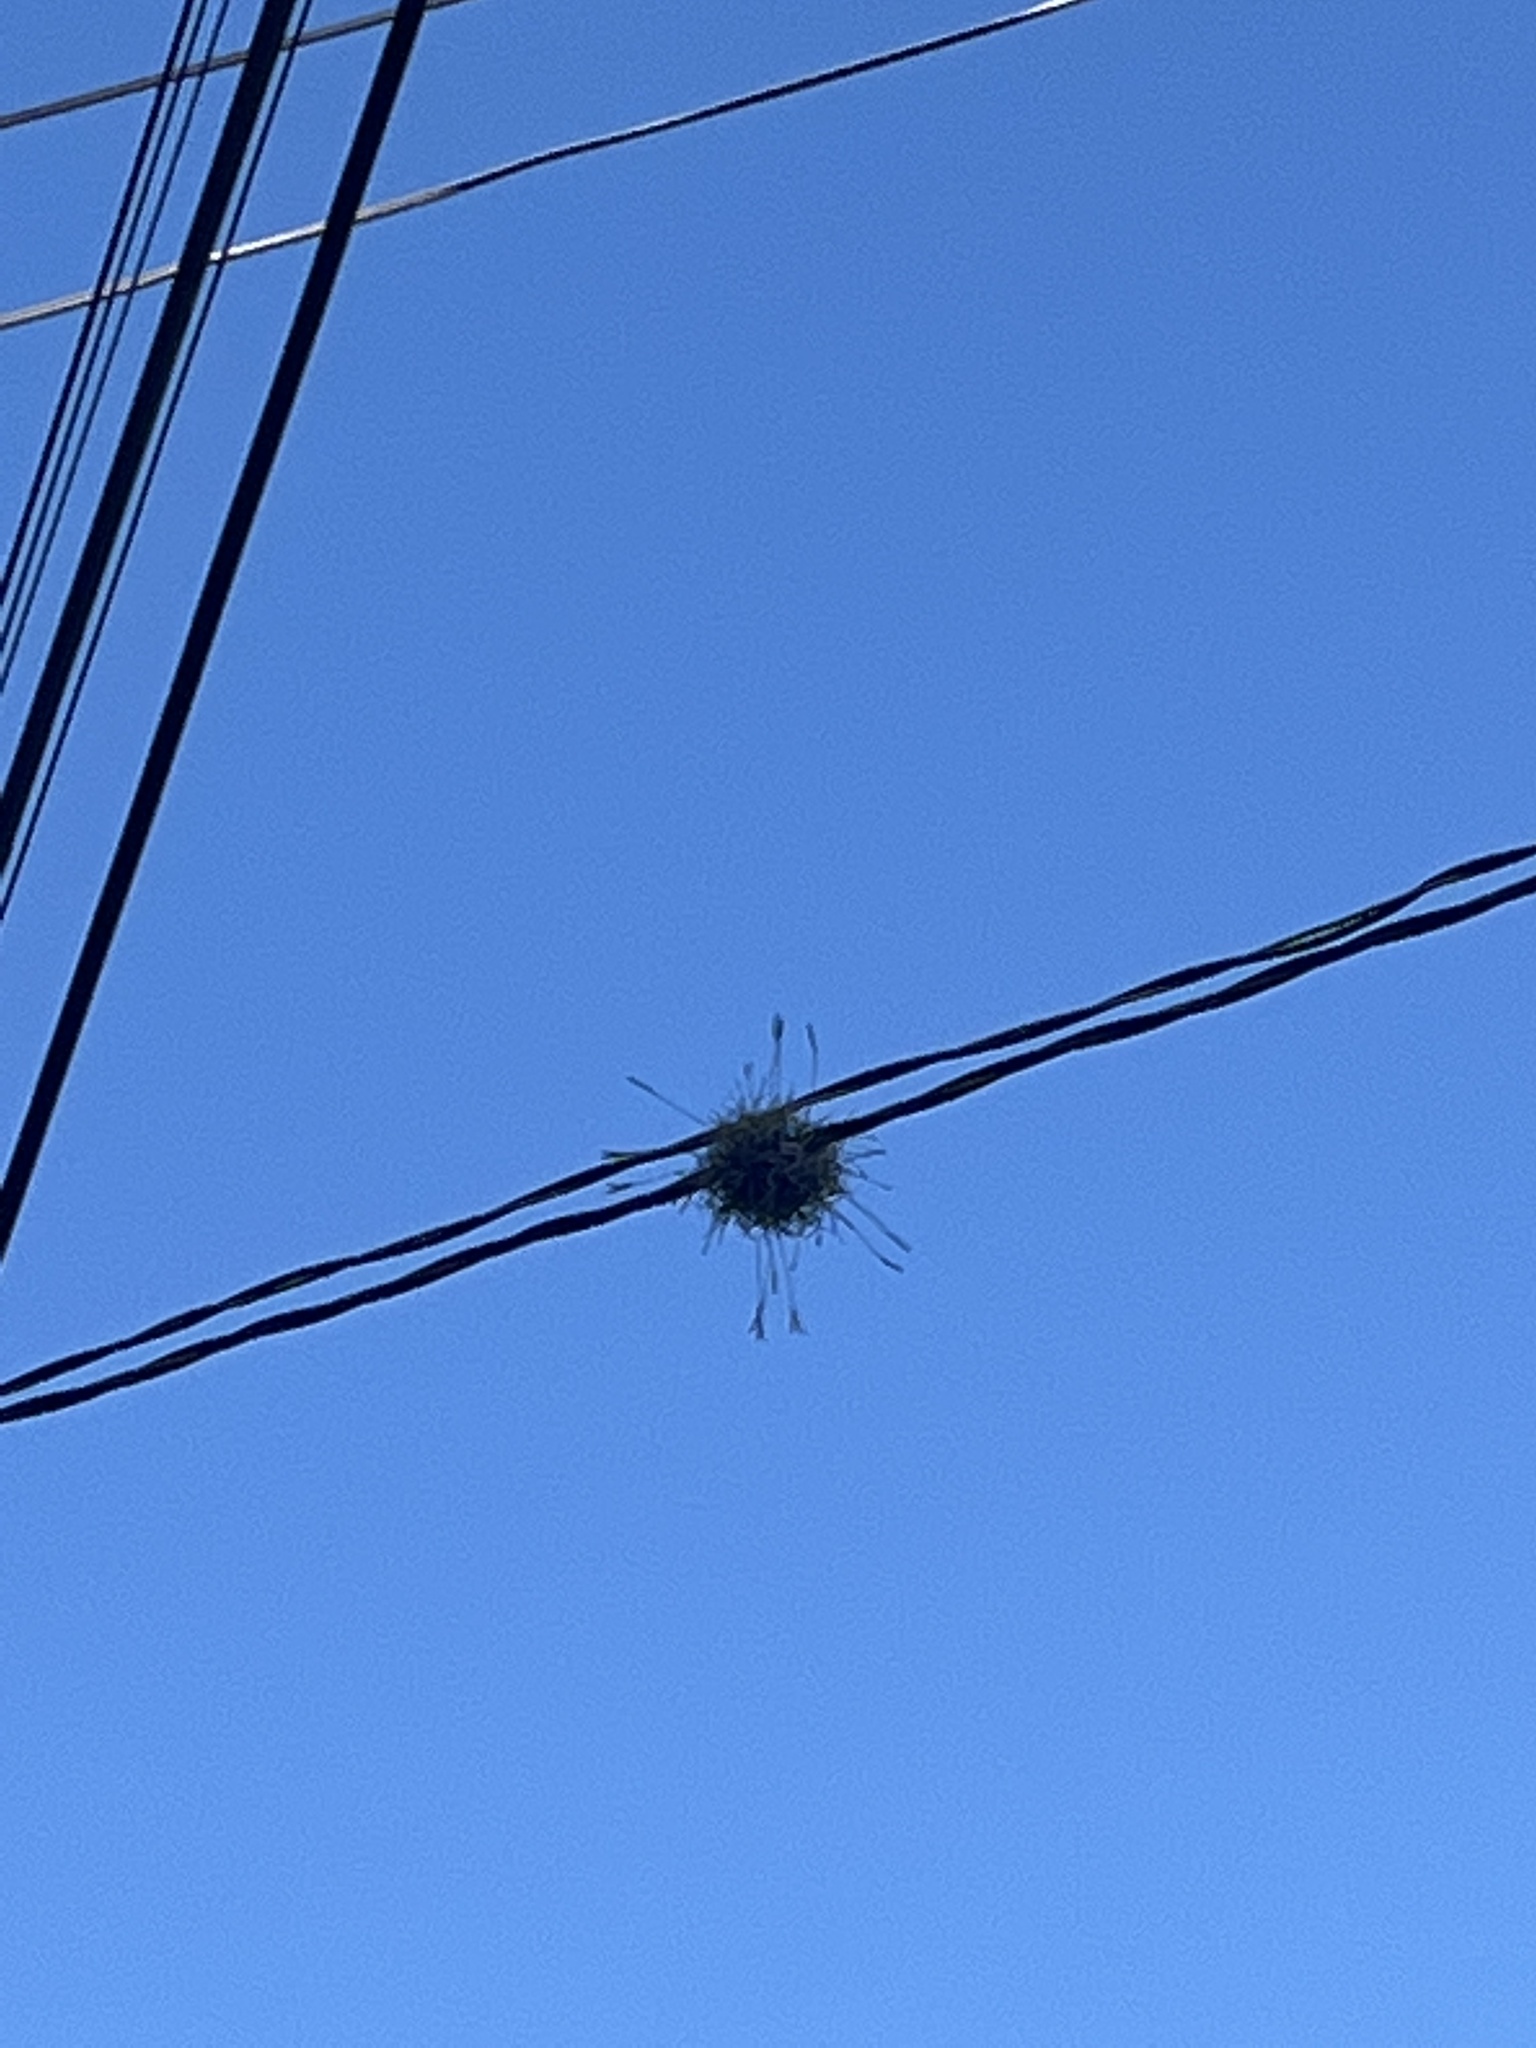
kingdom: Plantae
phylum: Tracheophyta
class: Liliopsida
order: Poales
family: Bromeliaceae
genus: Tillandsia
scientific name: Tillandsia recurvata
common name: Small ballmoss
